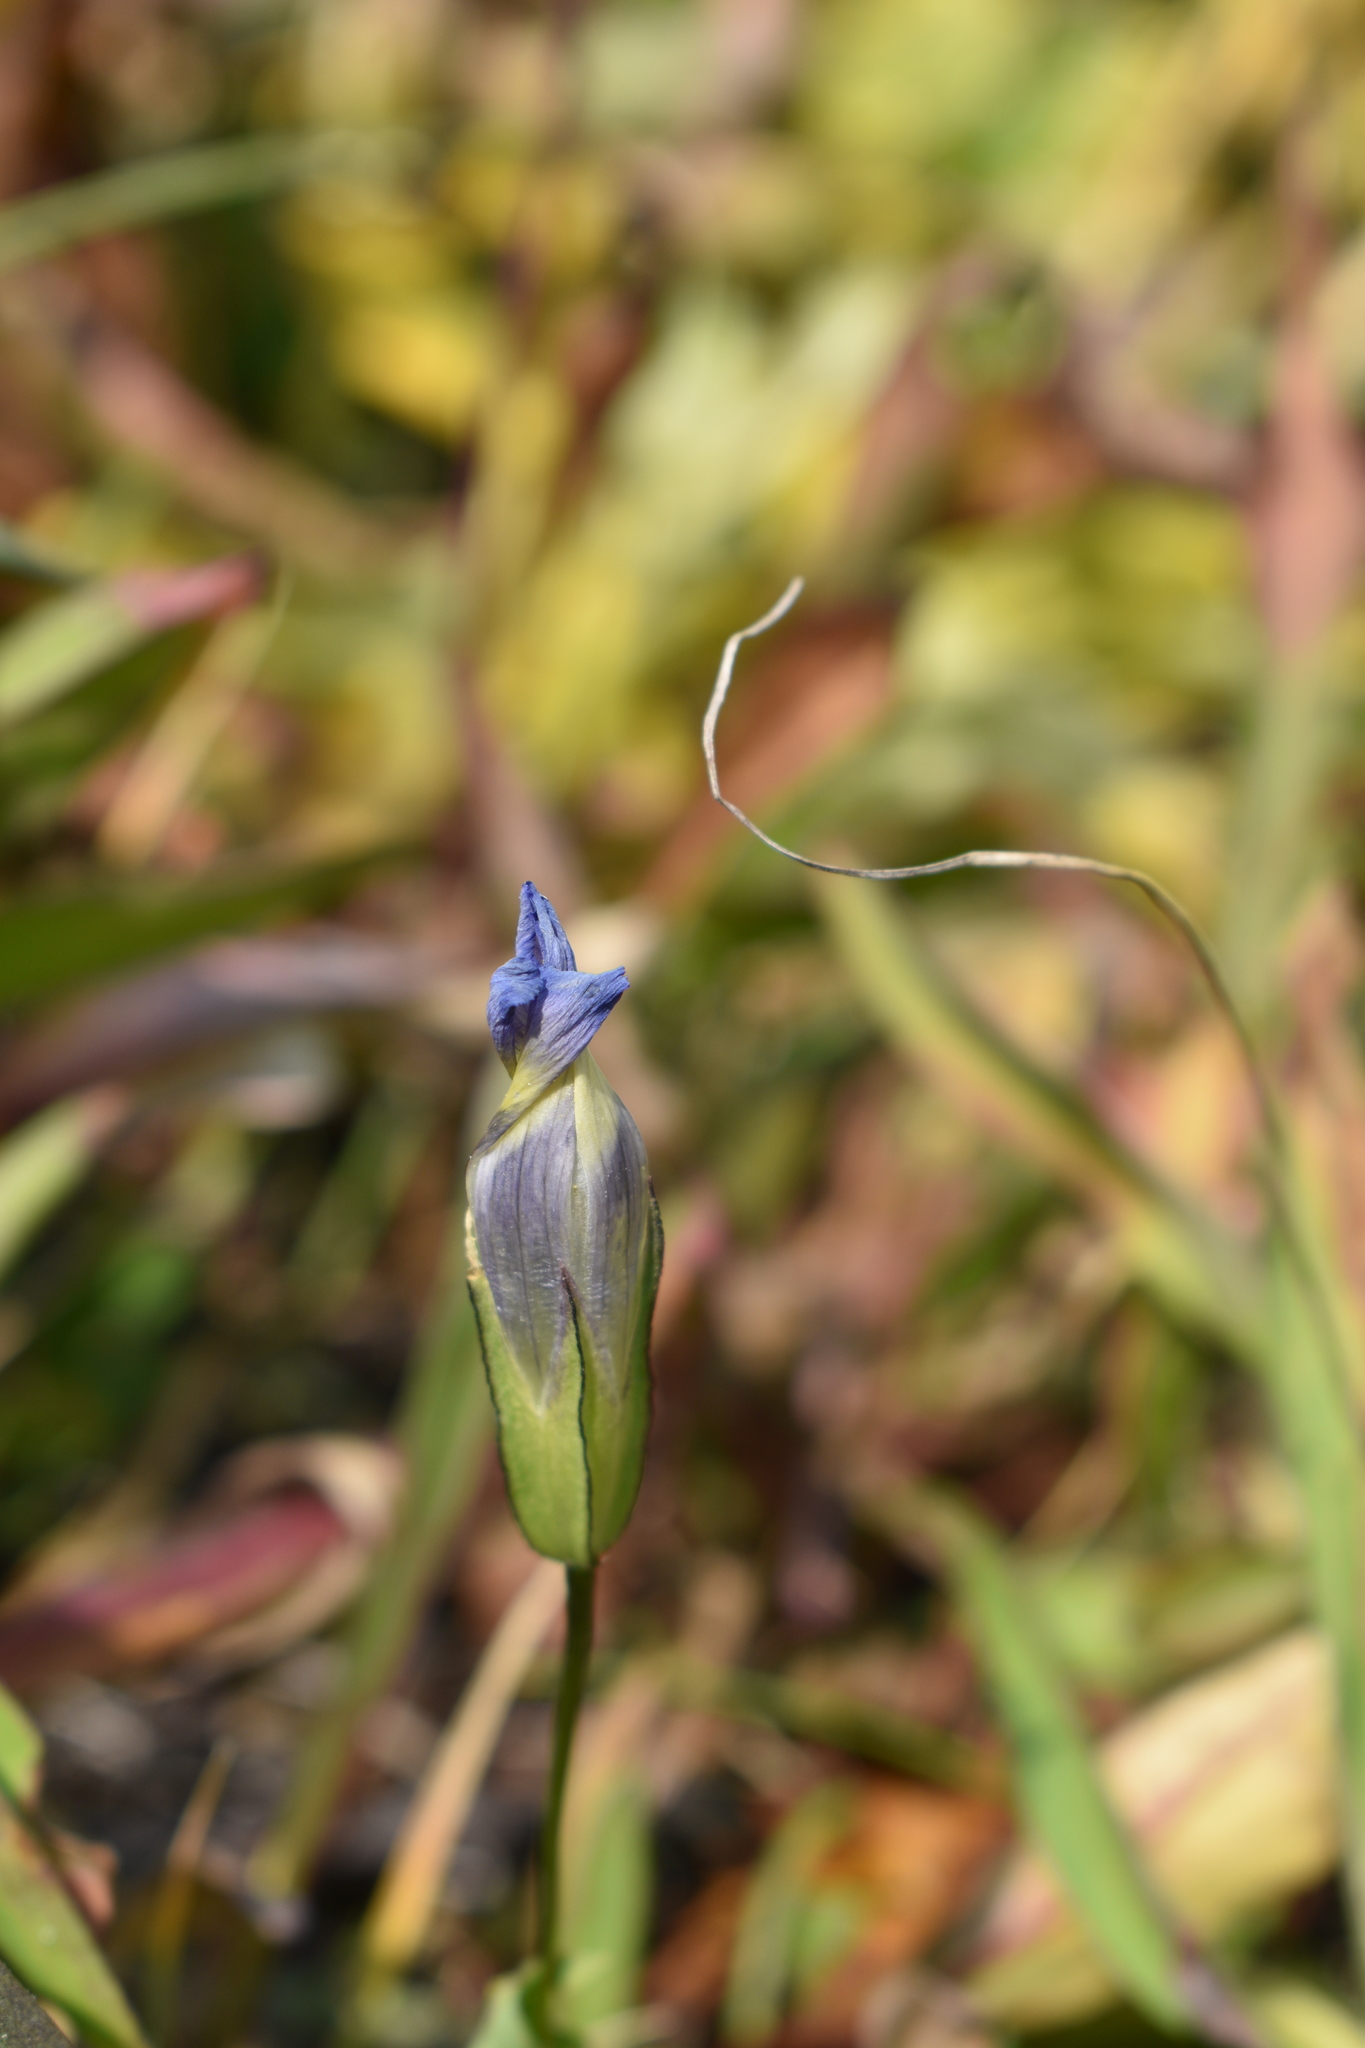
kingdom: Plantae
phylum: Tracheophyta
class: Magnoliopsida
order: Gentianales
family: Gentianaceae
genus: Gentianopsis
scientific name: Gentianopsis thermalis
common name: Rocky mountain fringed-gentian
